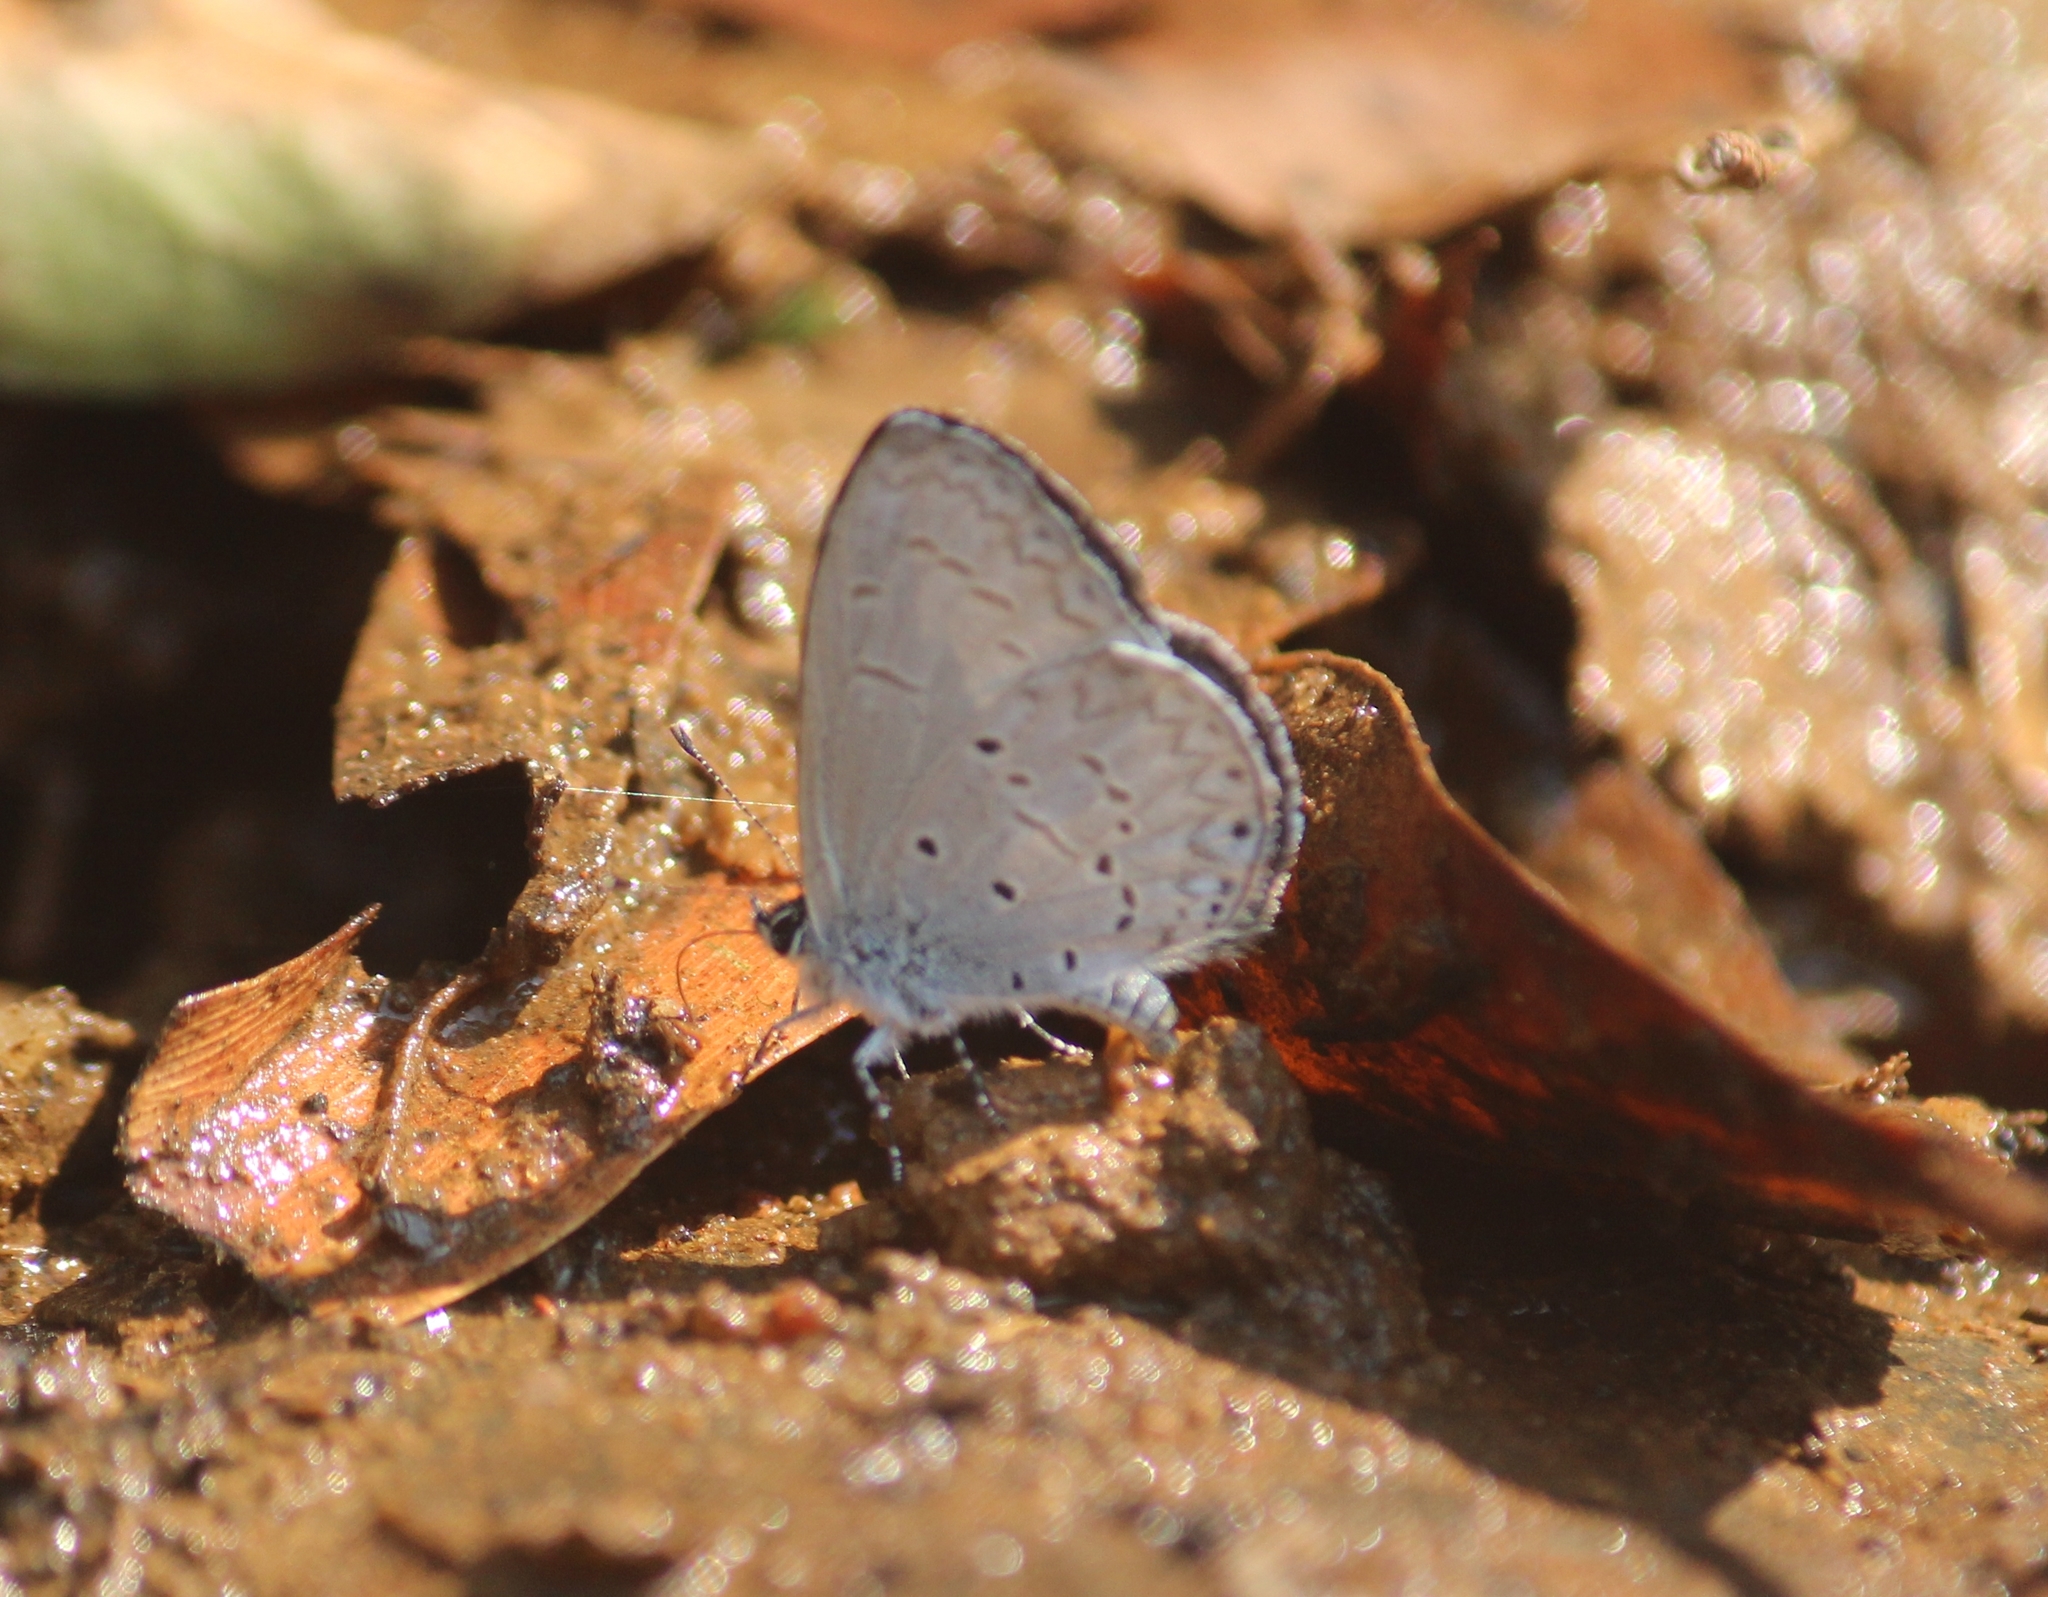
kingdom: Animalia
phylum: Arthropoda
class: Insecta
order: Lepidoptera
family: Lycaenidae
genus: Celastrina
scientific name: Celastrina lavendularis
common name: Plain hedge blue
